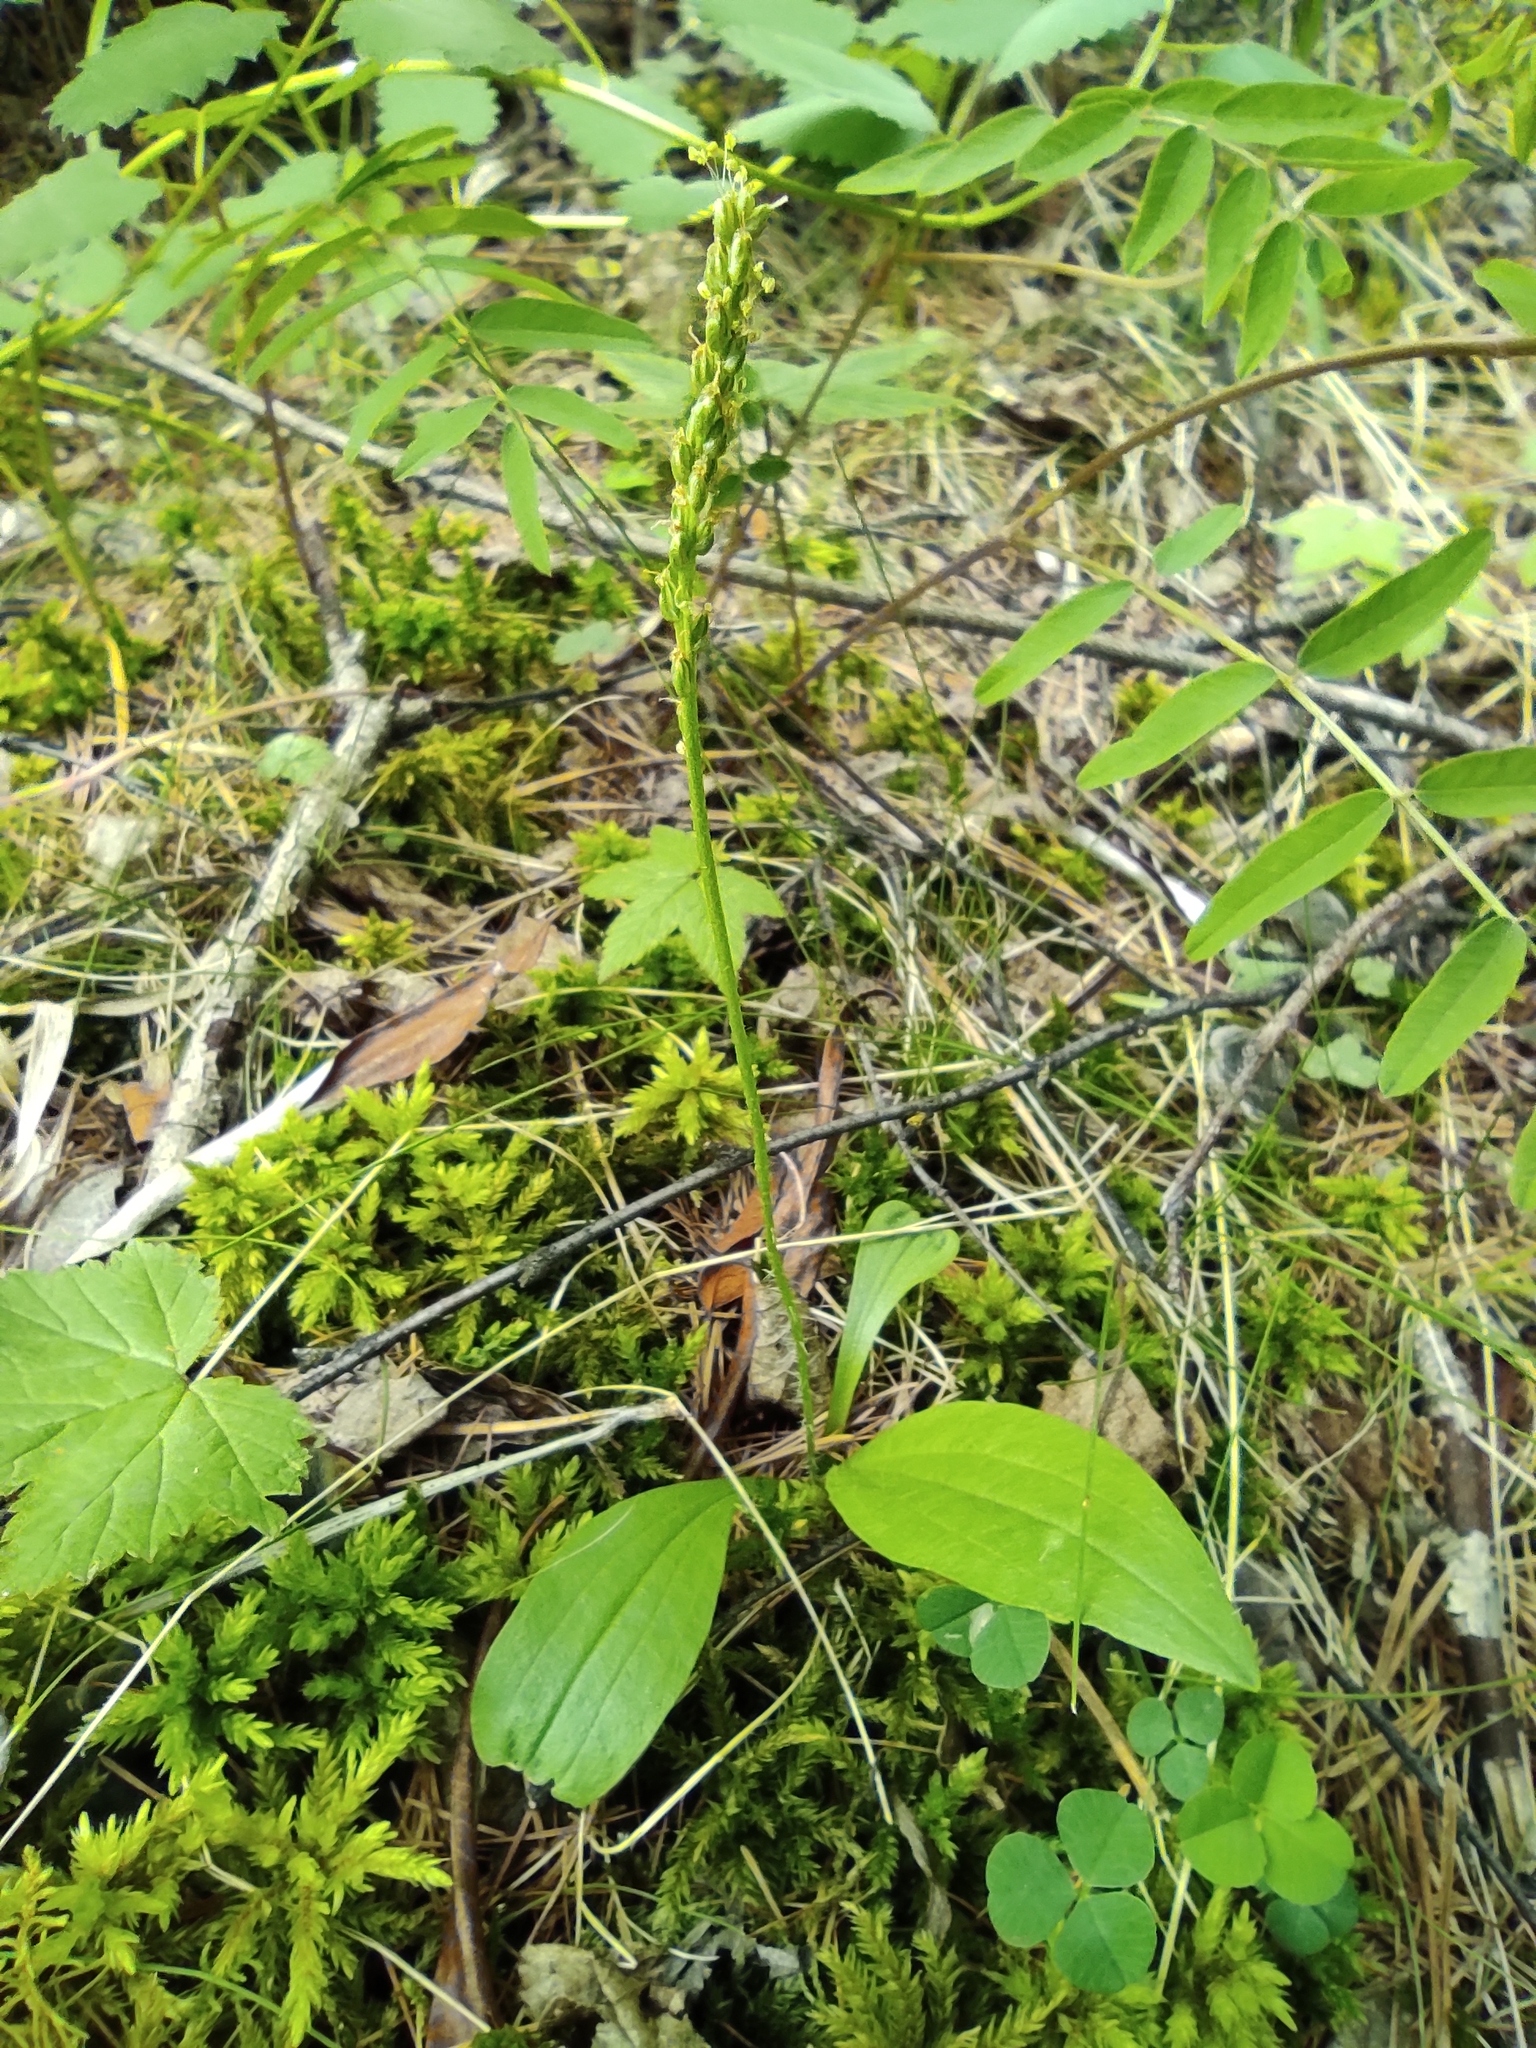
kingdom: Plantae
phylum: Tracheophyta
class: Liliopsida
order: Asparagales
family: Orchidaceae
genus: Malaxis
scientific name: Malaxis monophyllos
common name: White adder's-mouth
